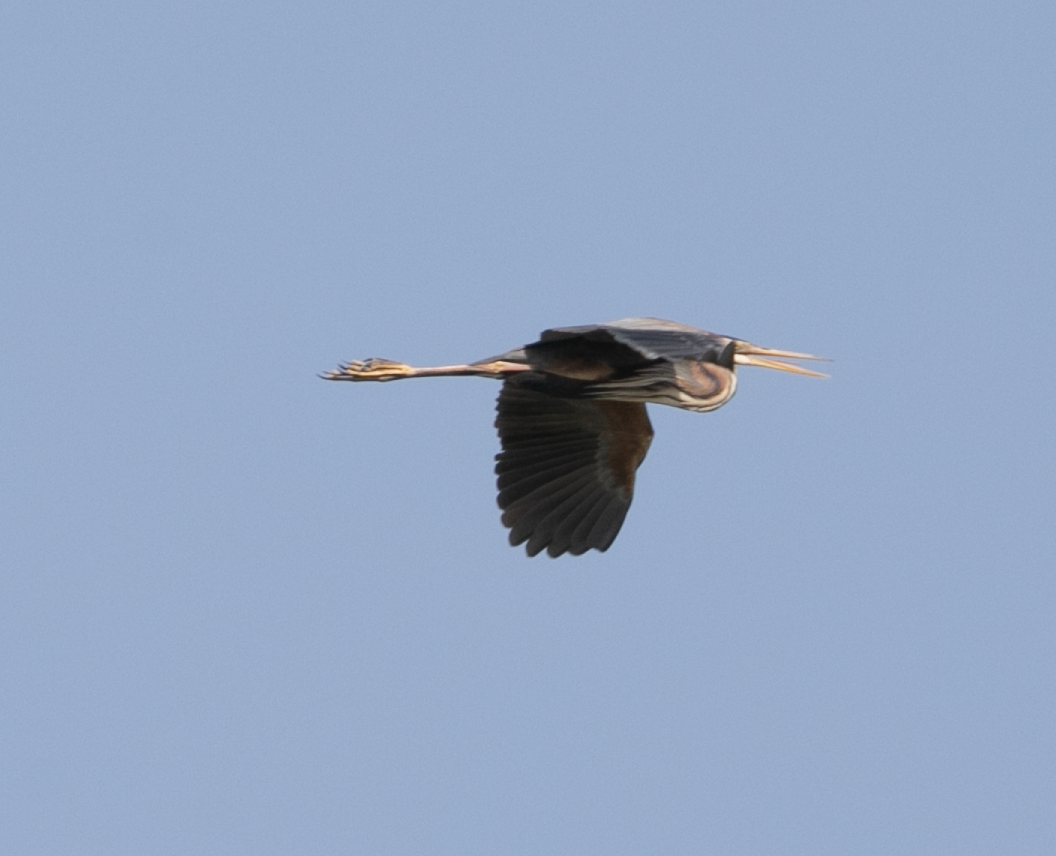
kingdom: Animalia
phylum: Chordata
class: Aves
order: Pelecaniformes
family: Ardeidae
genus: Ardea
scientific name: Ardea purpurea
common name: Purple heron
